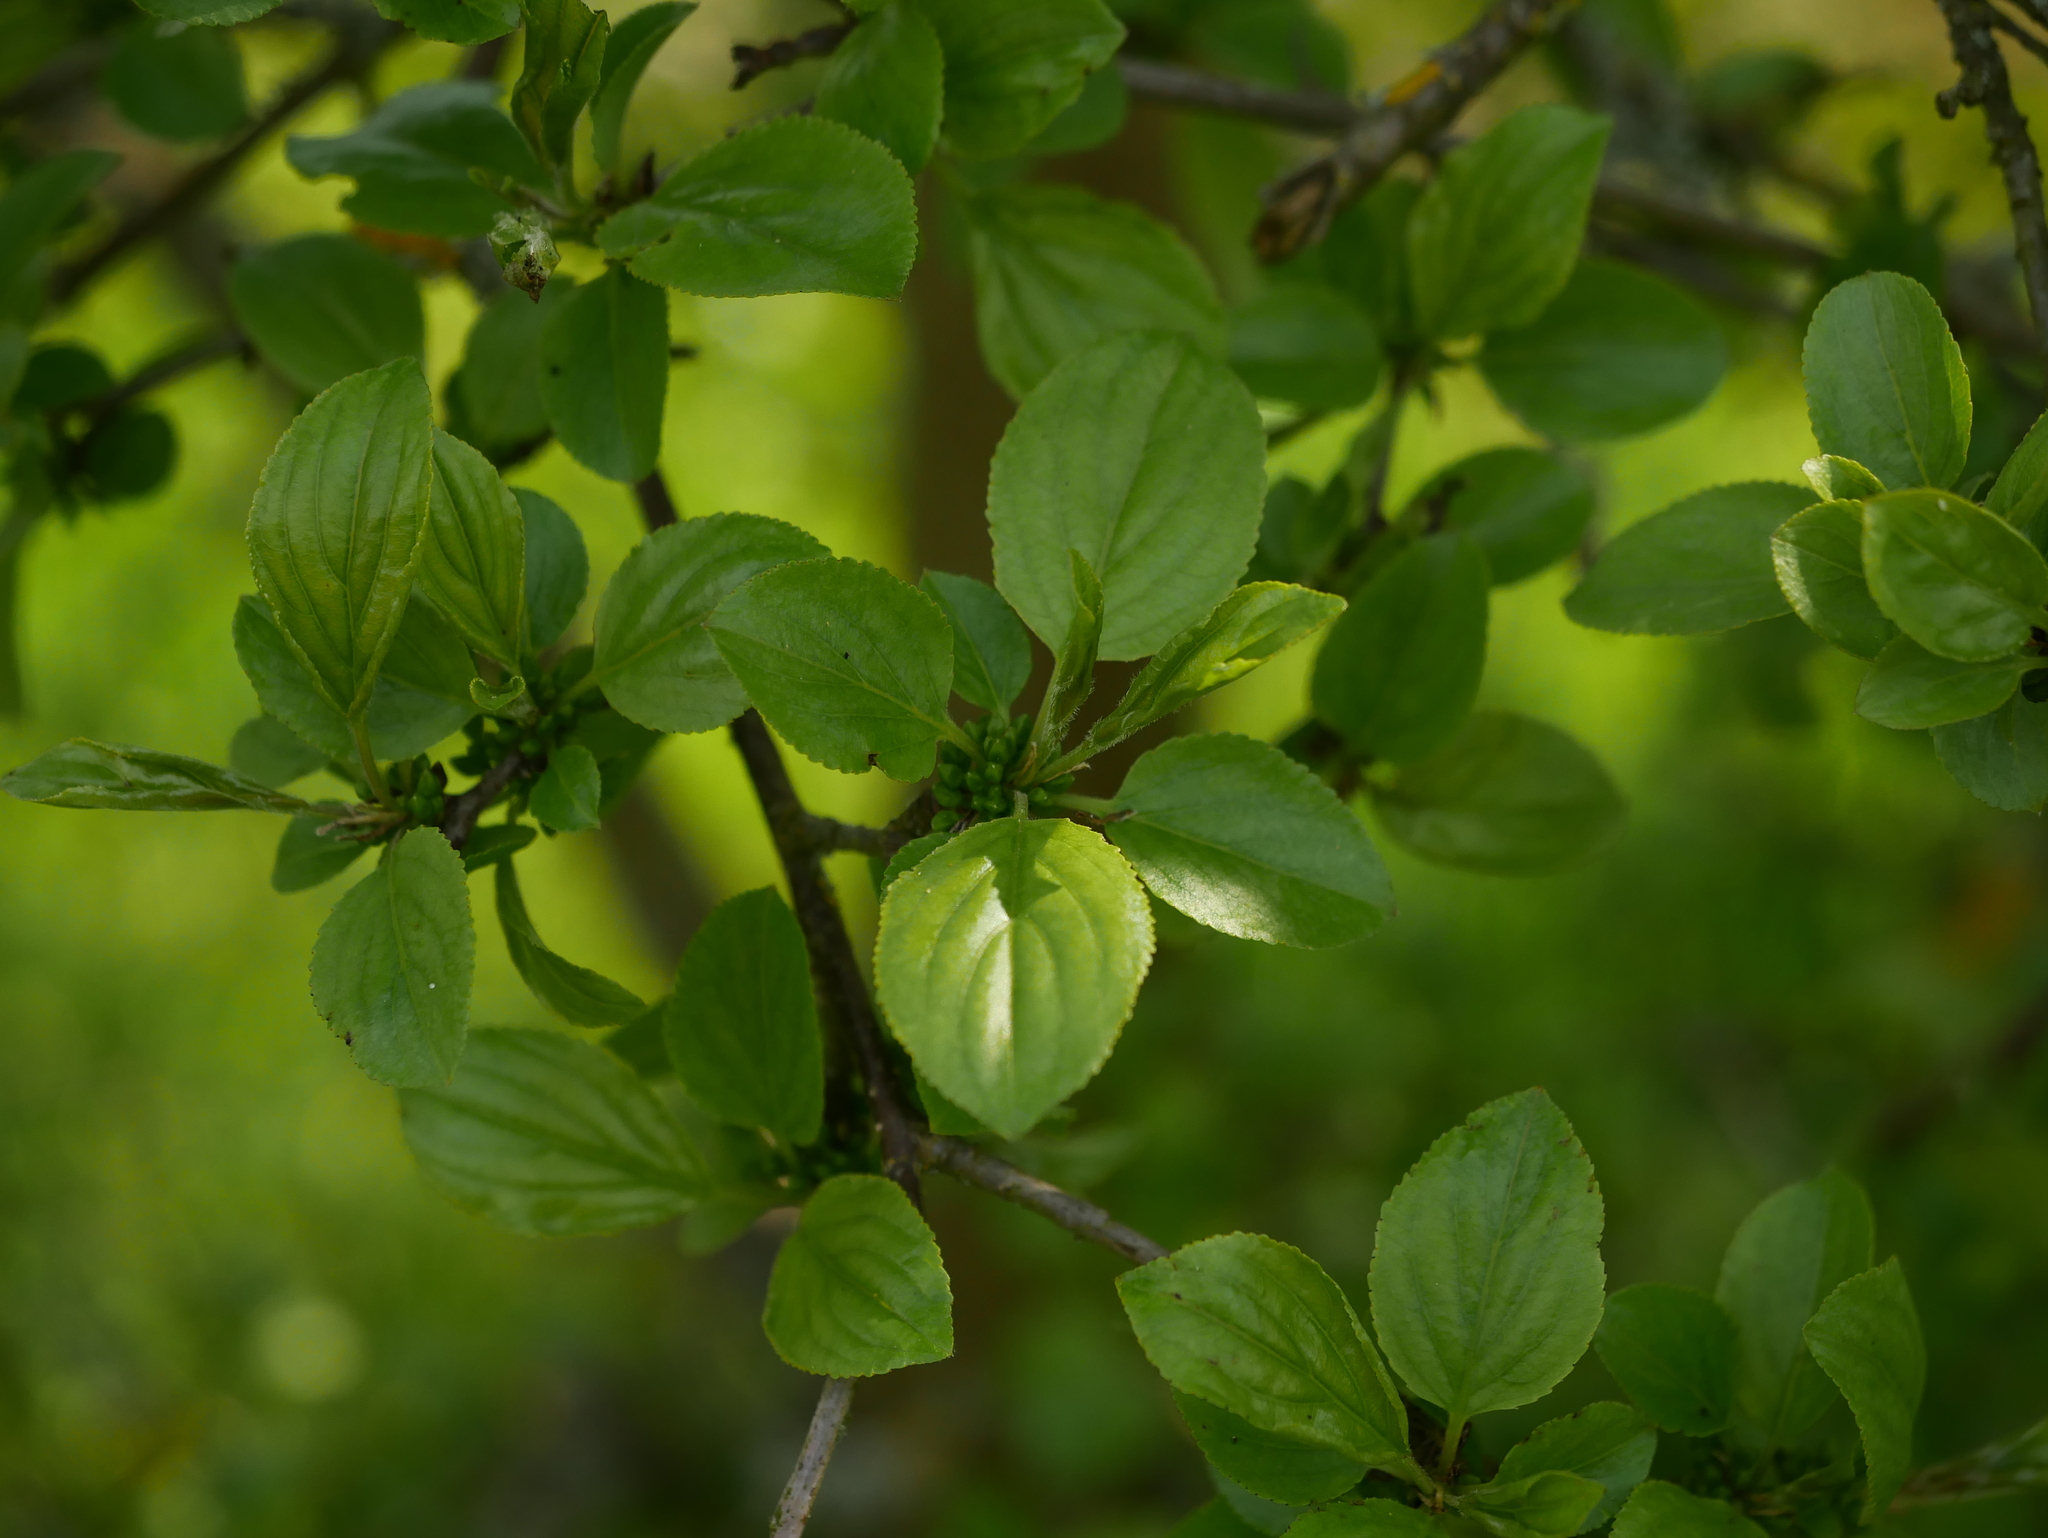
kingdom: Plantae
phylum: Tracheophyta
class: Magnoliopsida
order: Rosales
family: Rhamnaceae
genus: Rhamnus
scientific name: Rhamnus cathartica
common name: Common buckthorn
